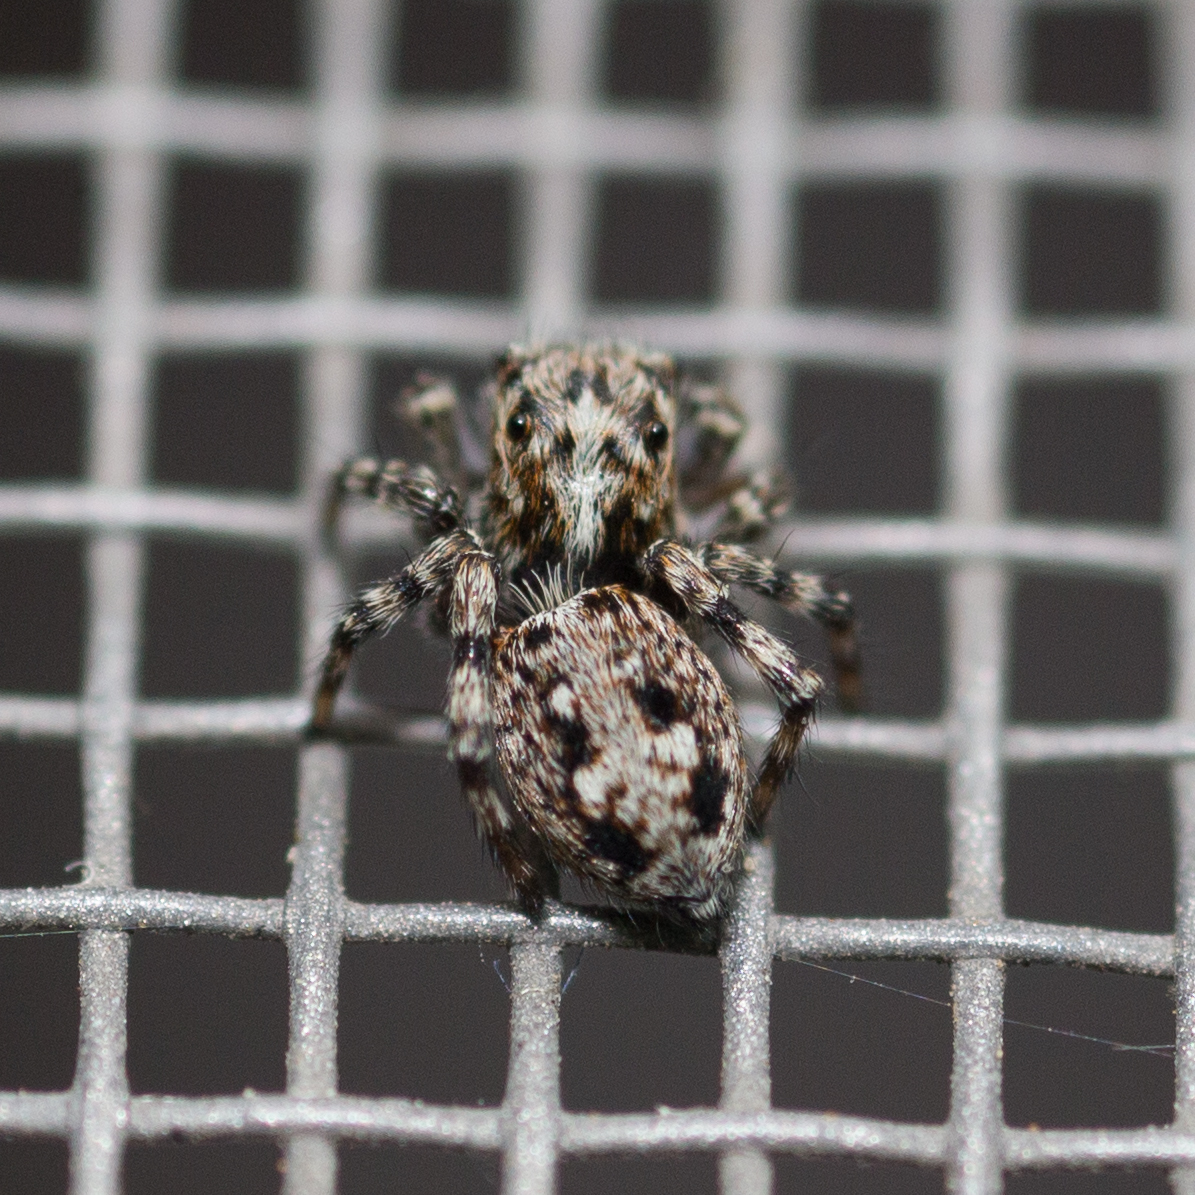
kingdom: Animalia
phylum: Arthropoda
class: Arachnida
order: Araneae
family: Salticidae
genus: Attulus
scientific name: Attulus terebratus
